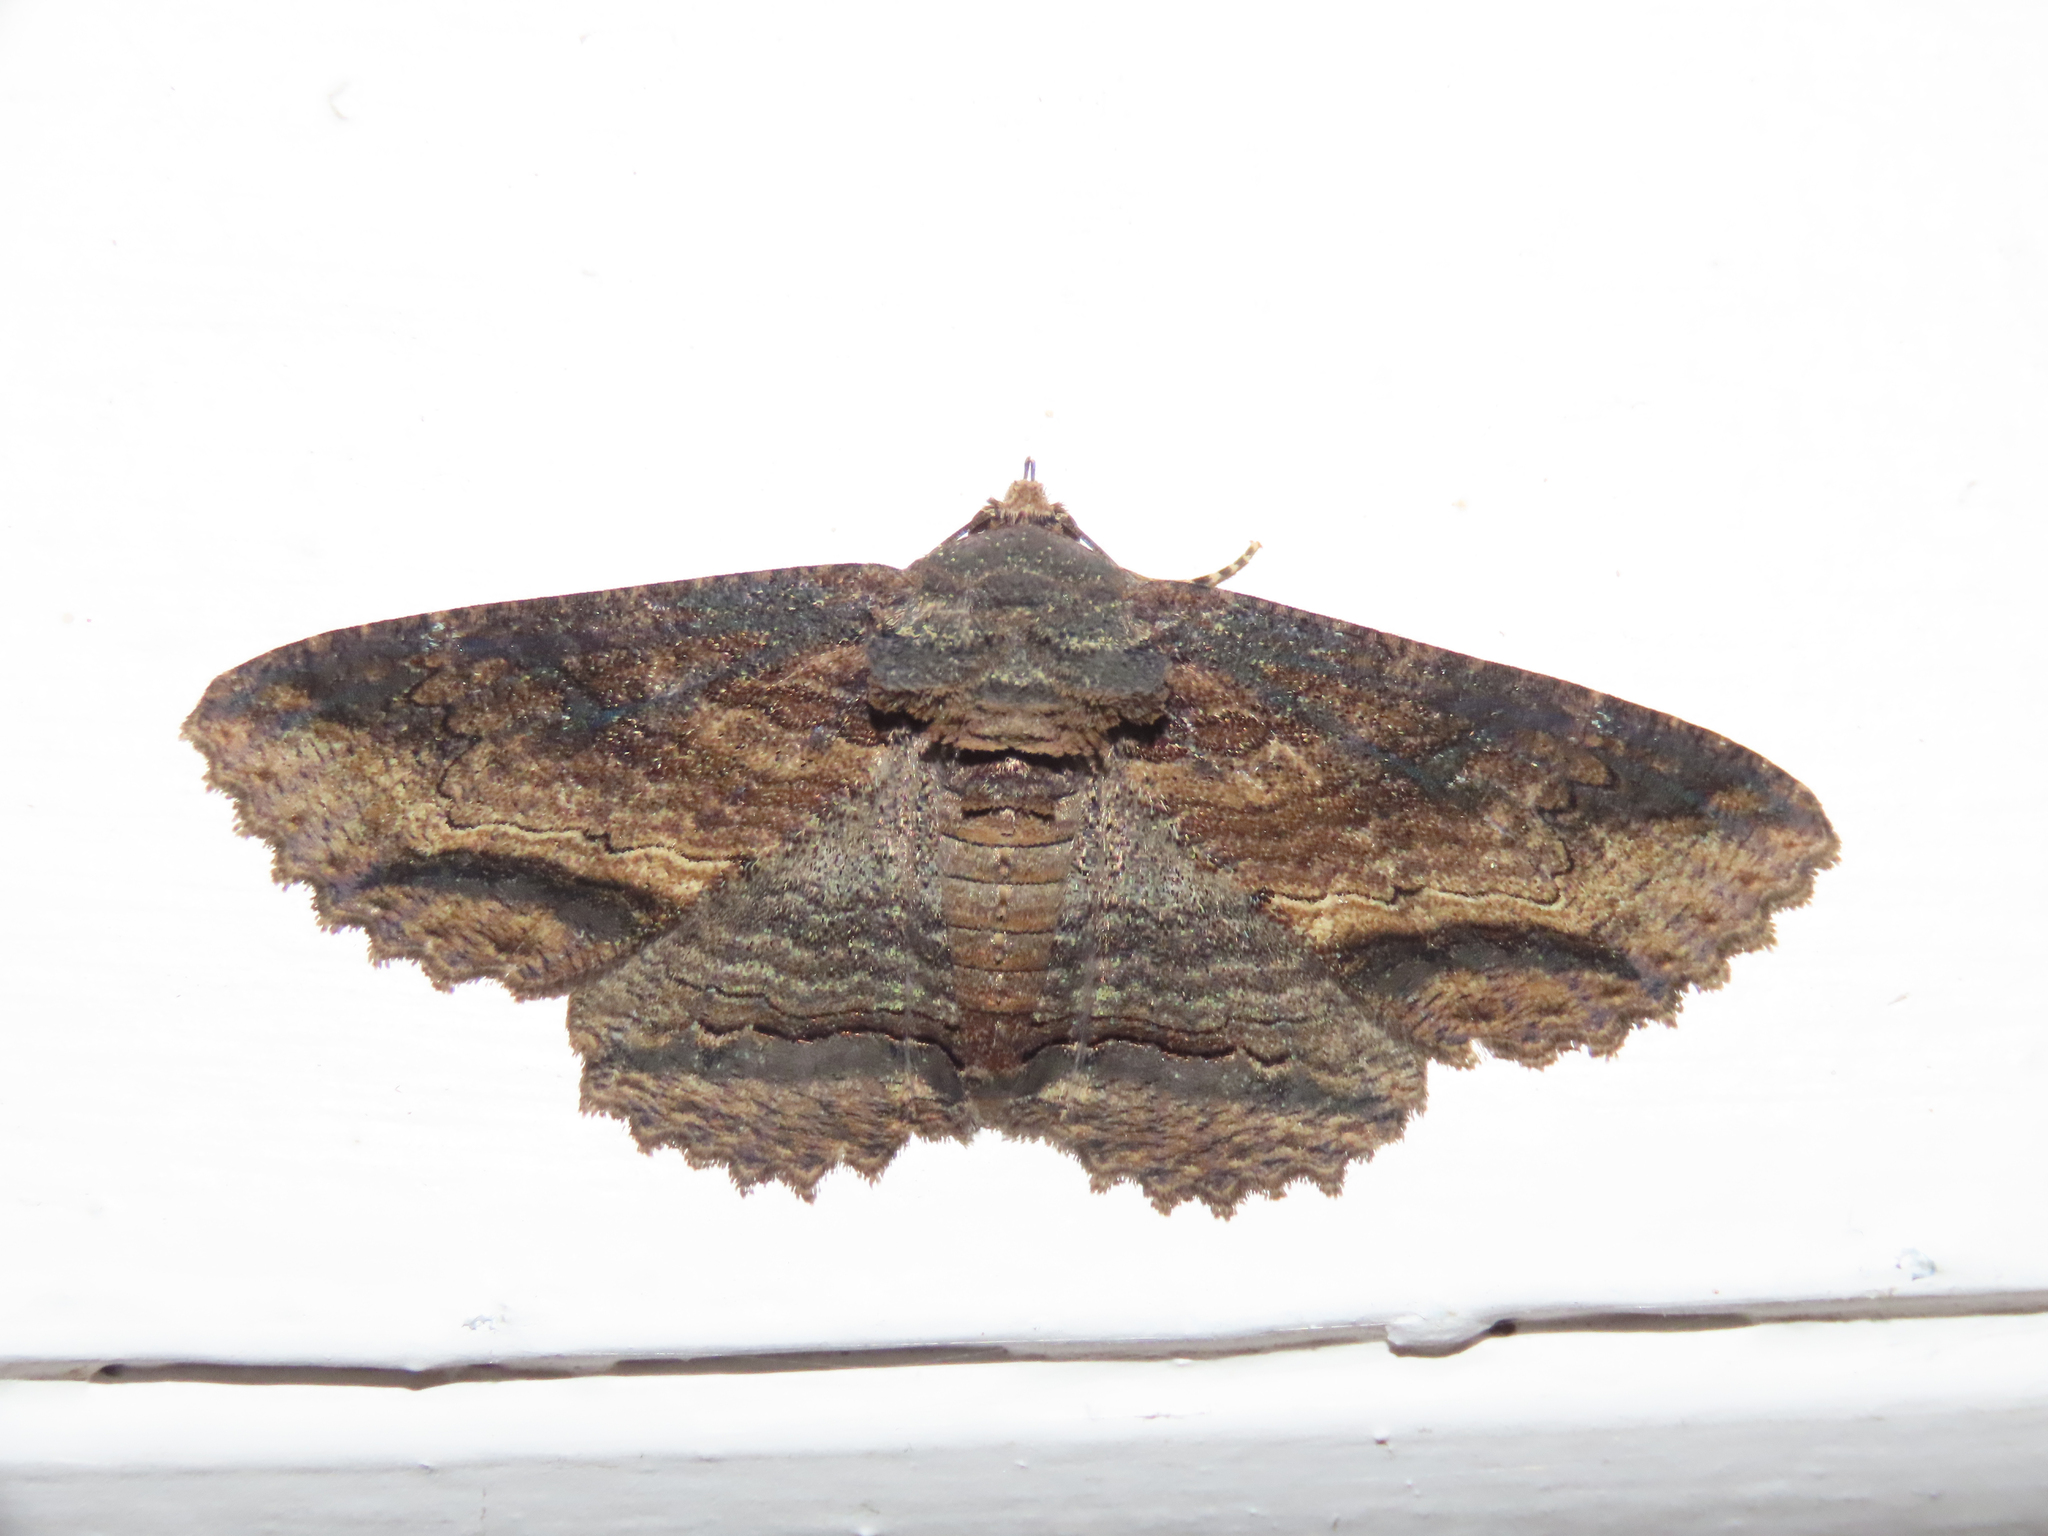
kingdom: Animalia
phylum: Arthropoda
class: Insecta
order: Lepidoptera
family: Erebidae
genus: Zale
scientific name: Zale lunata
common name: Lunate zale moth
